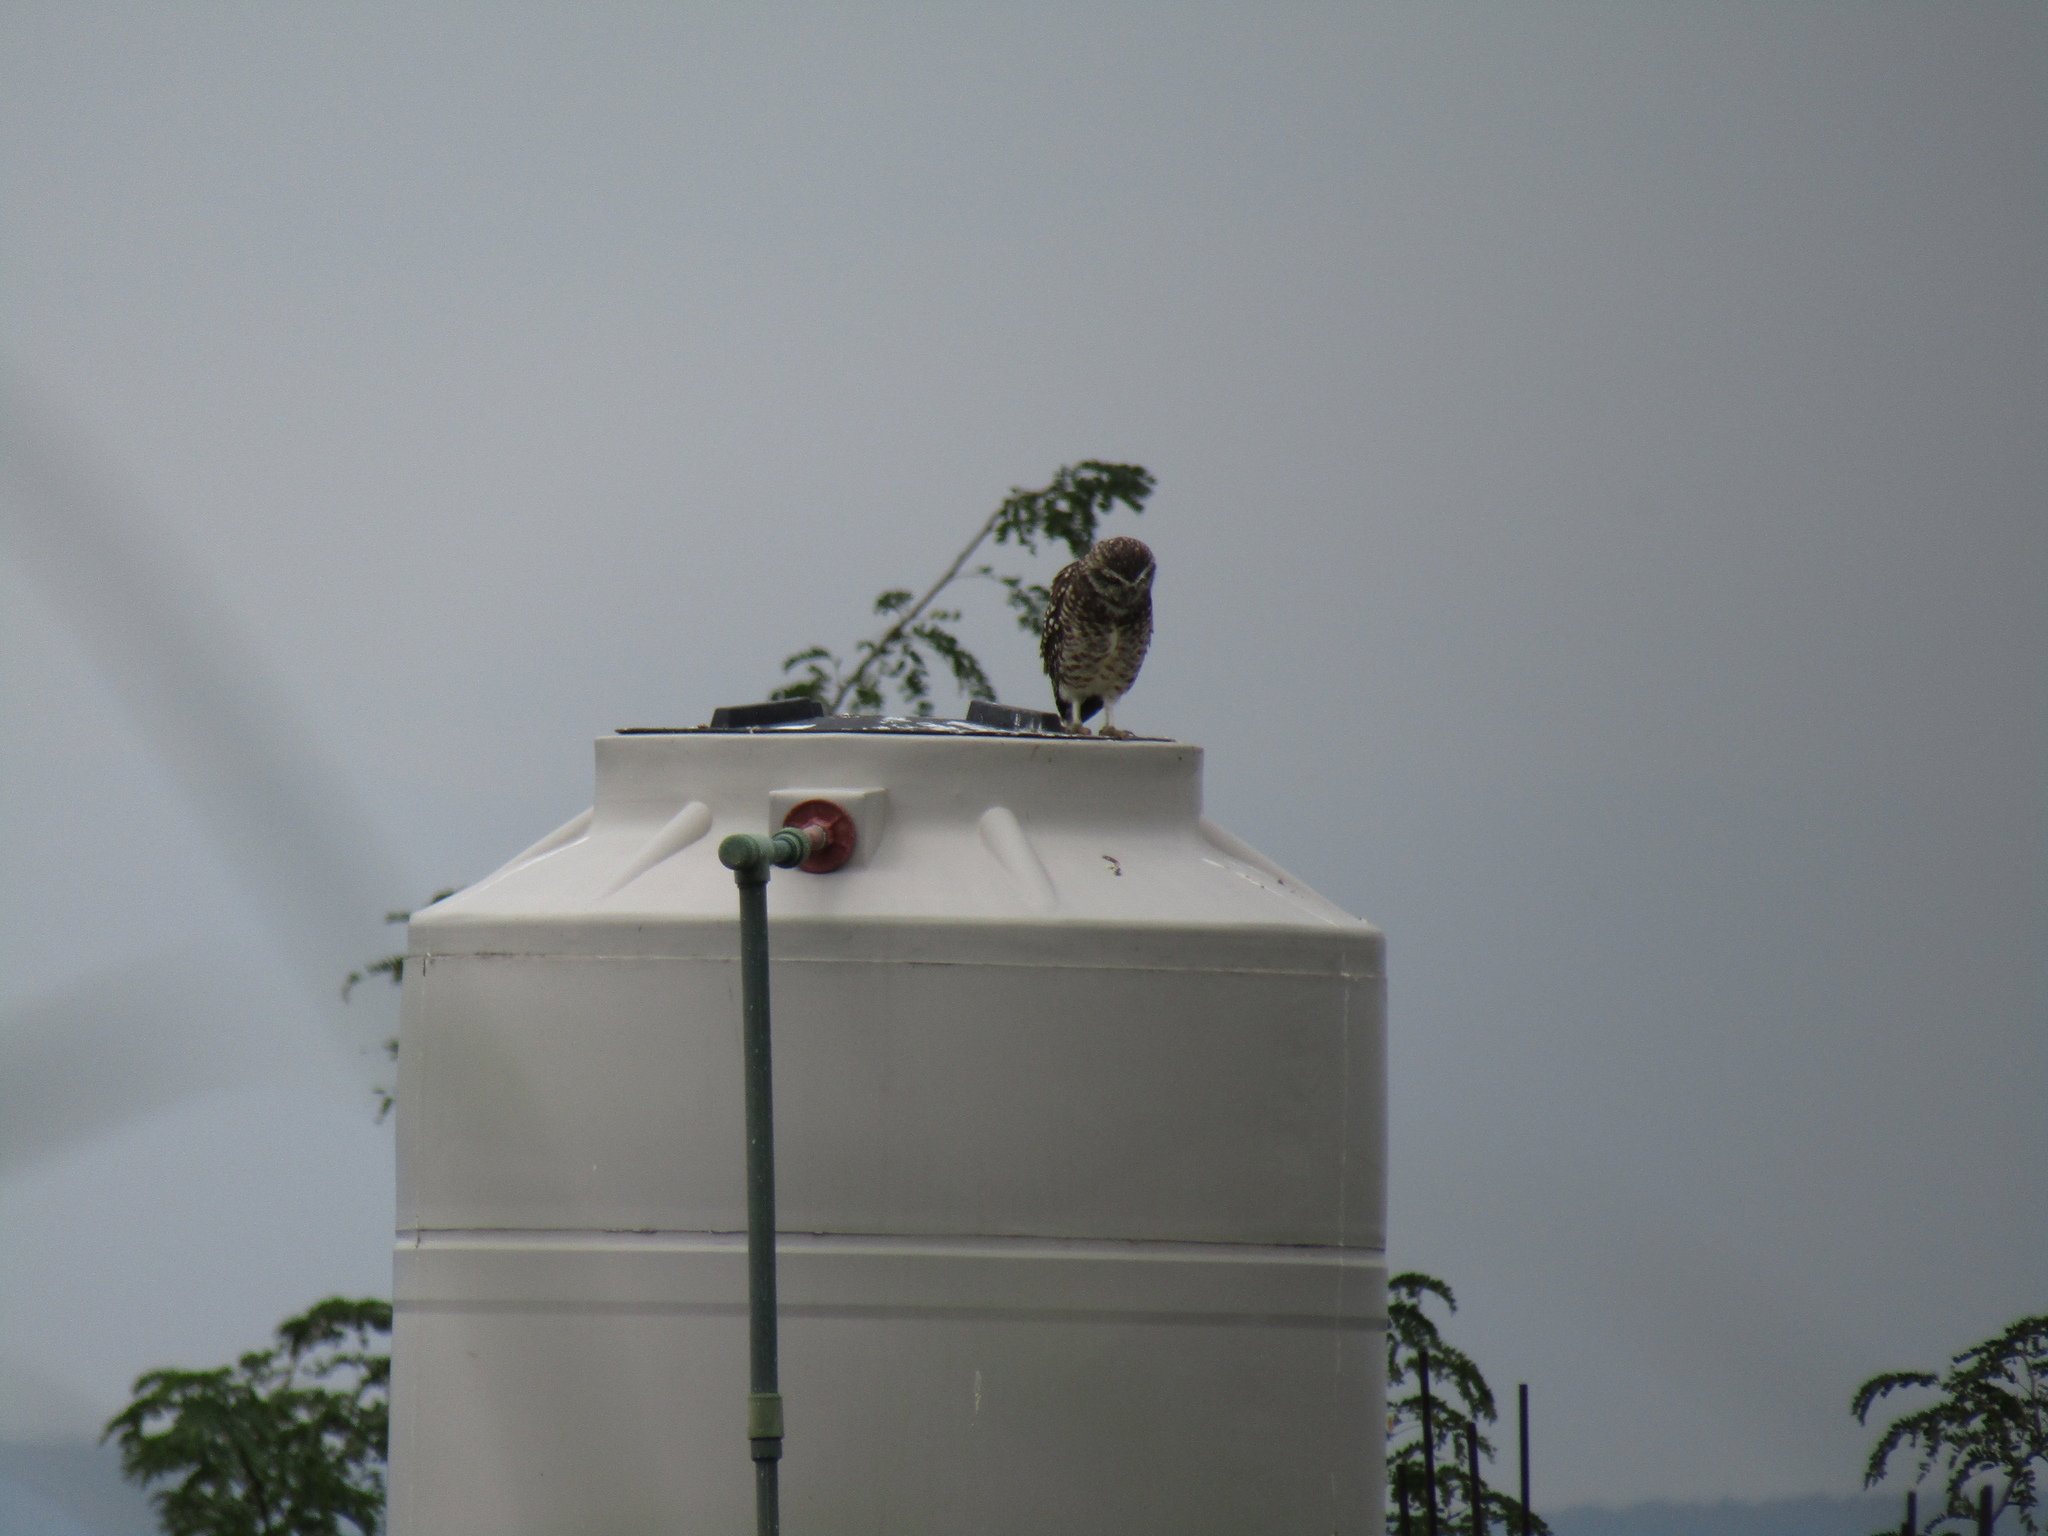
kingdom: Animalia
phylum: Chordata
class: Aves
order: Strigiformes
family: Strigidae
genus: Athene
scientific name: Athene cunicularia
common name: Burrowing owl
